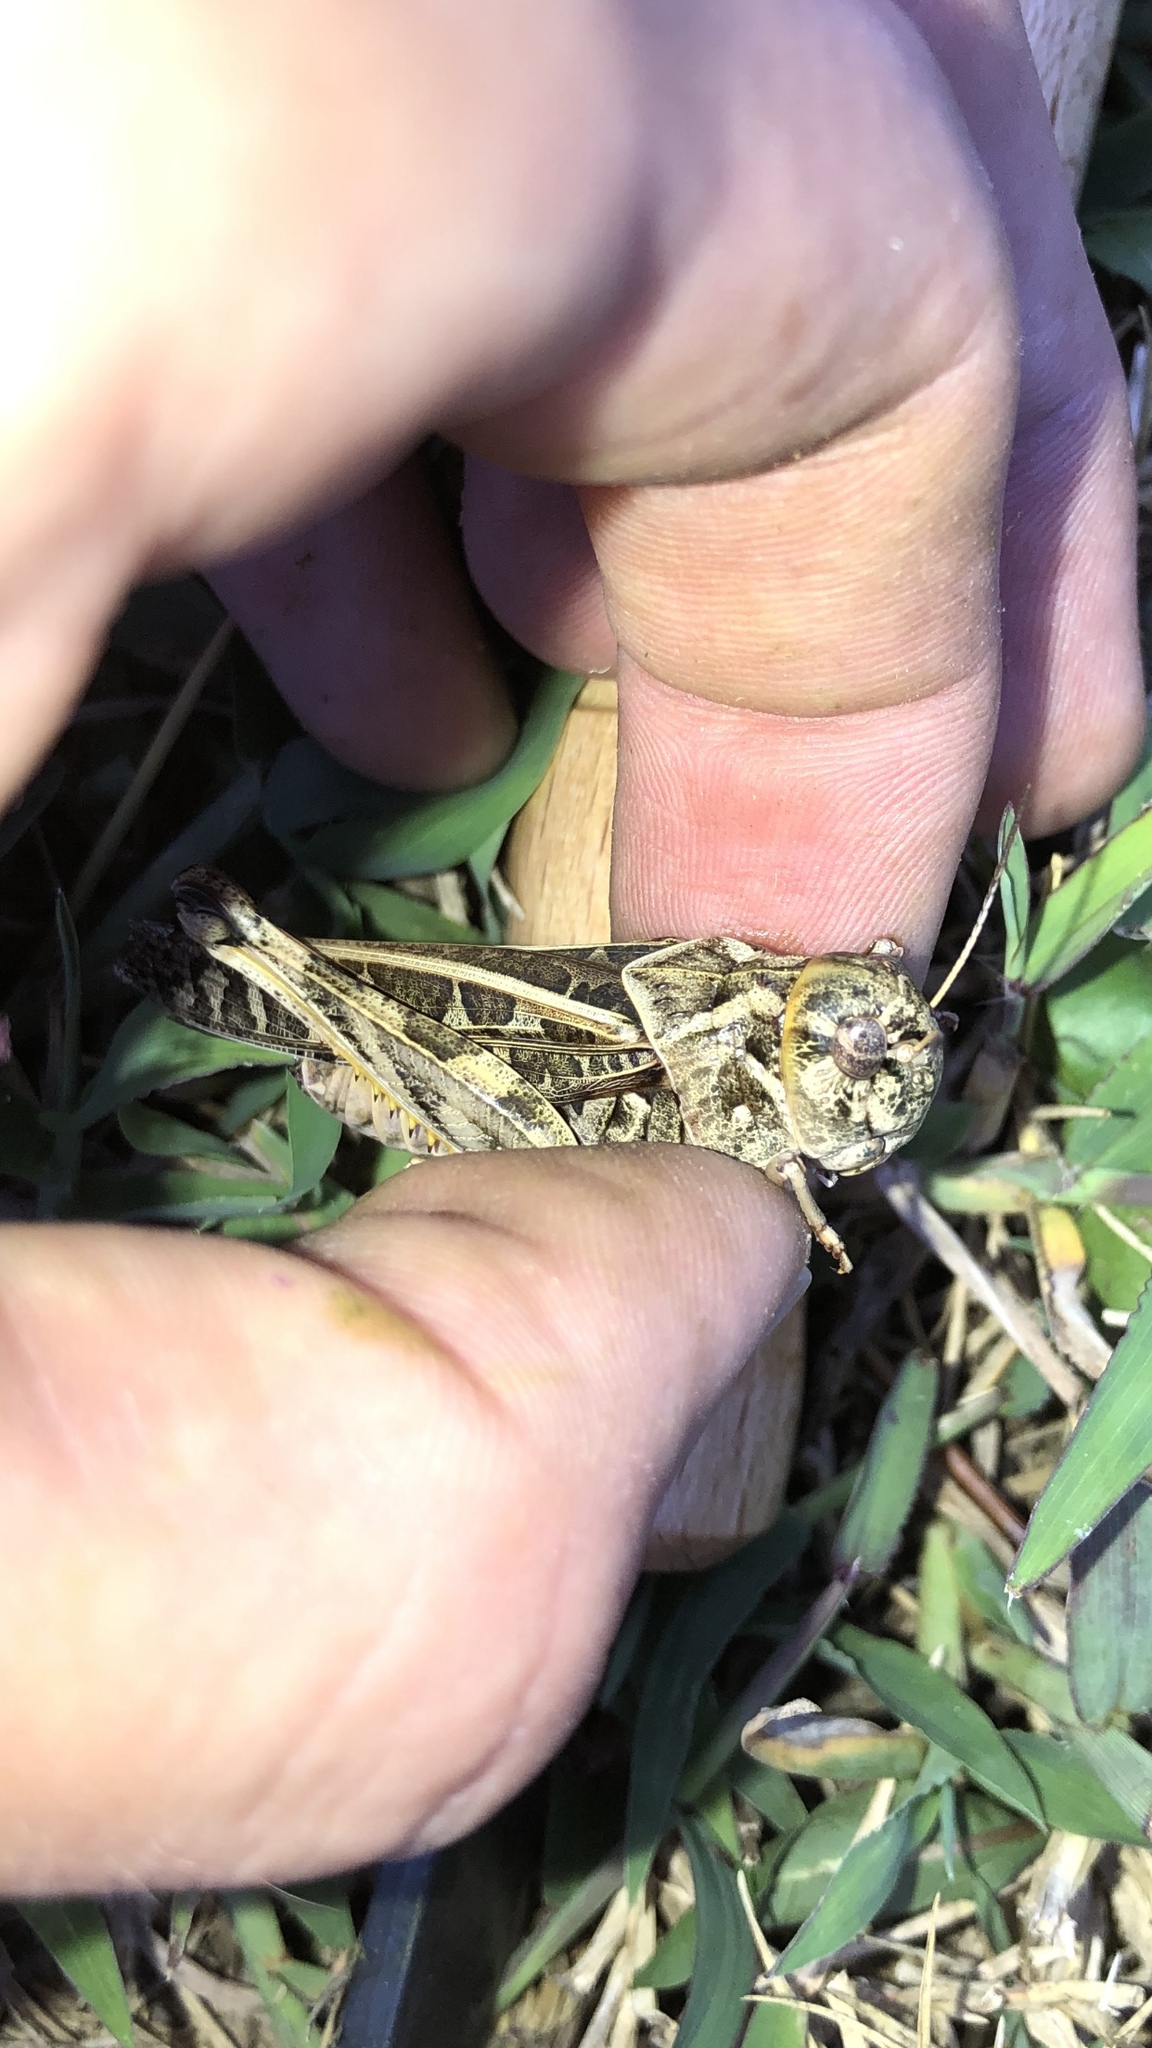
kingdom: Animalia
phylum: Arthropoda
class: Insecta
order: Orthoptera
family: Acrididae
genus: Hippiscus
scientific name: Hippiscus ocelote
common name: Wrinkled grasshopper
